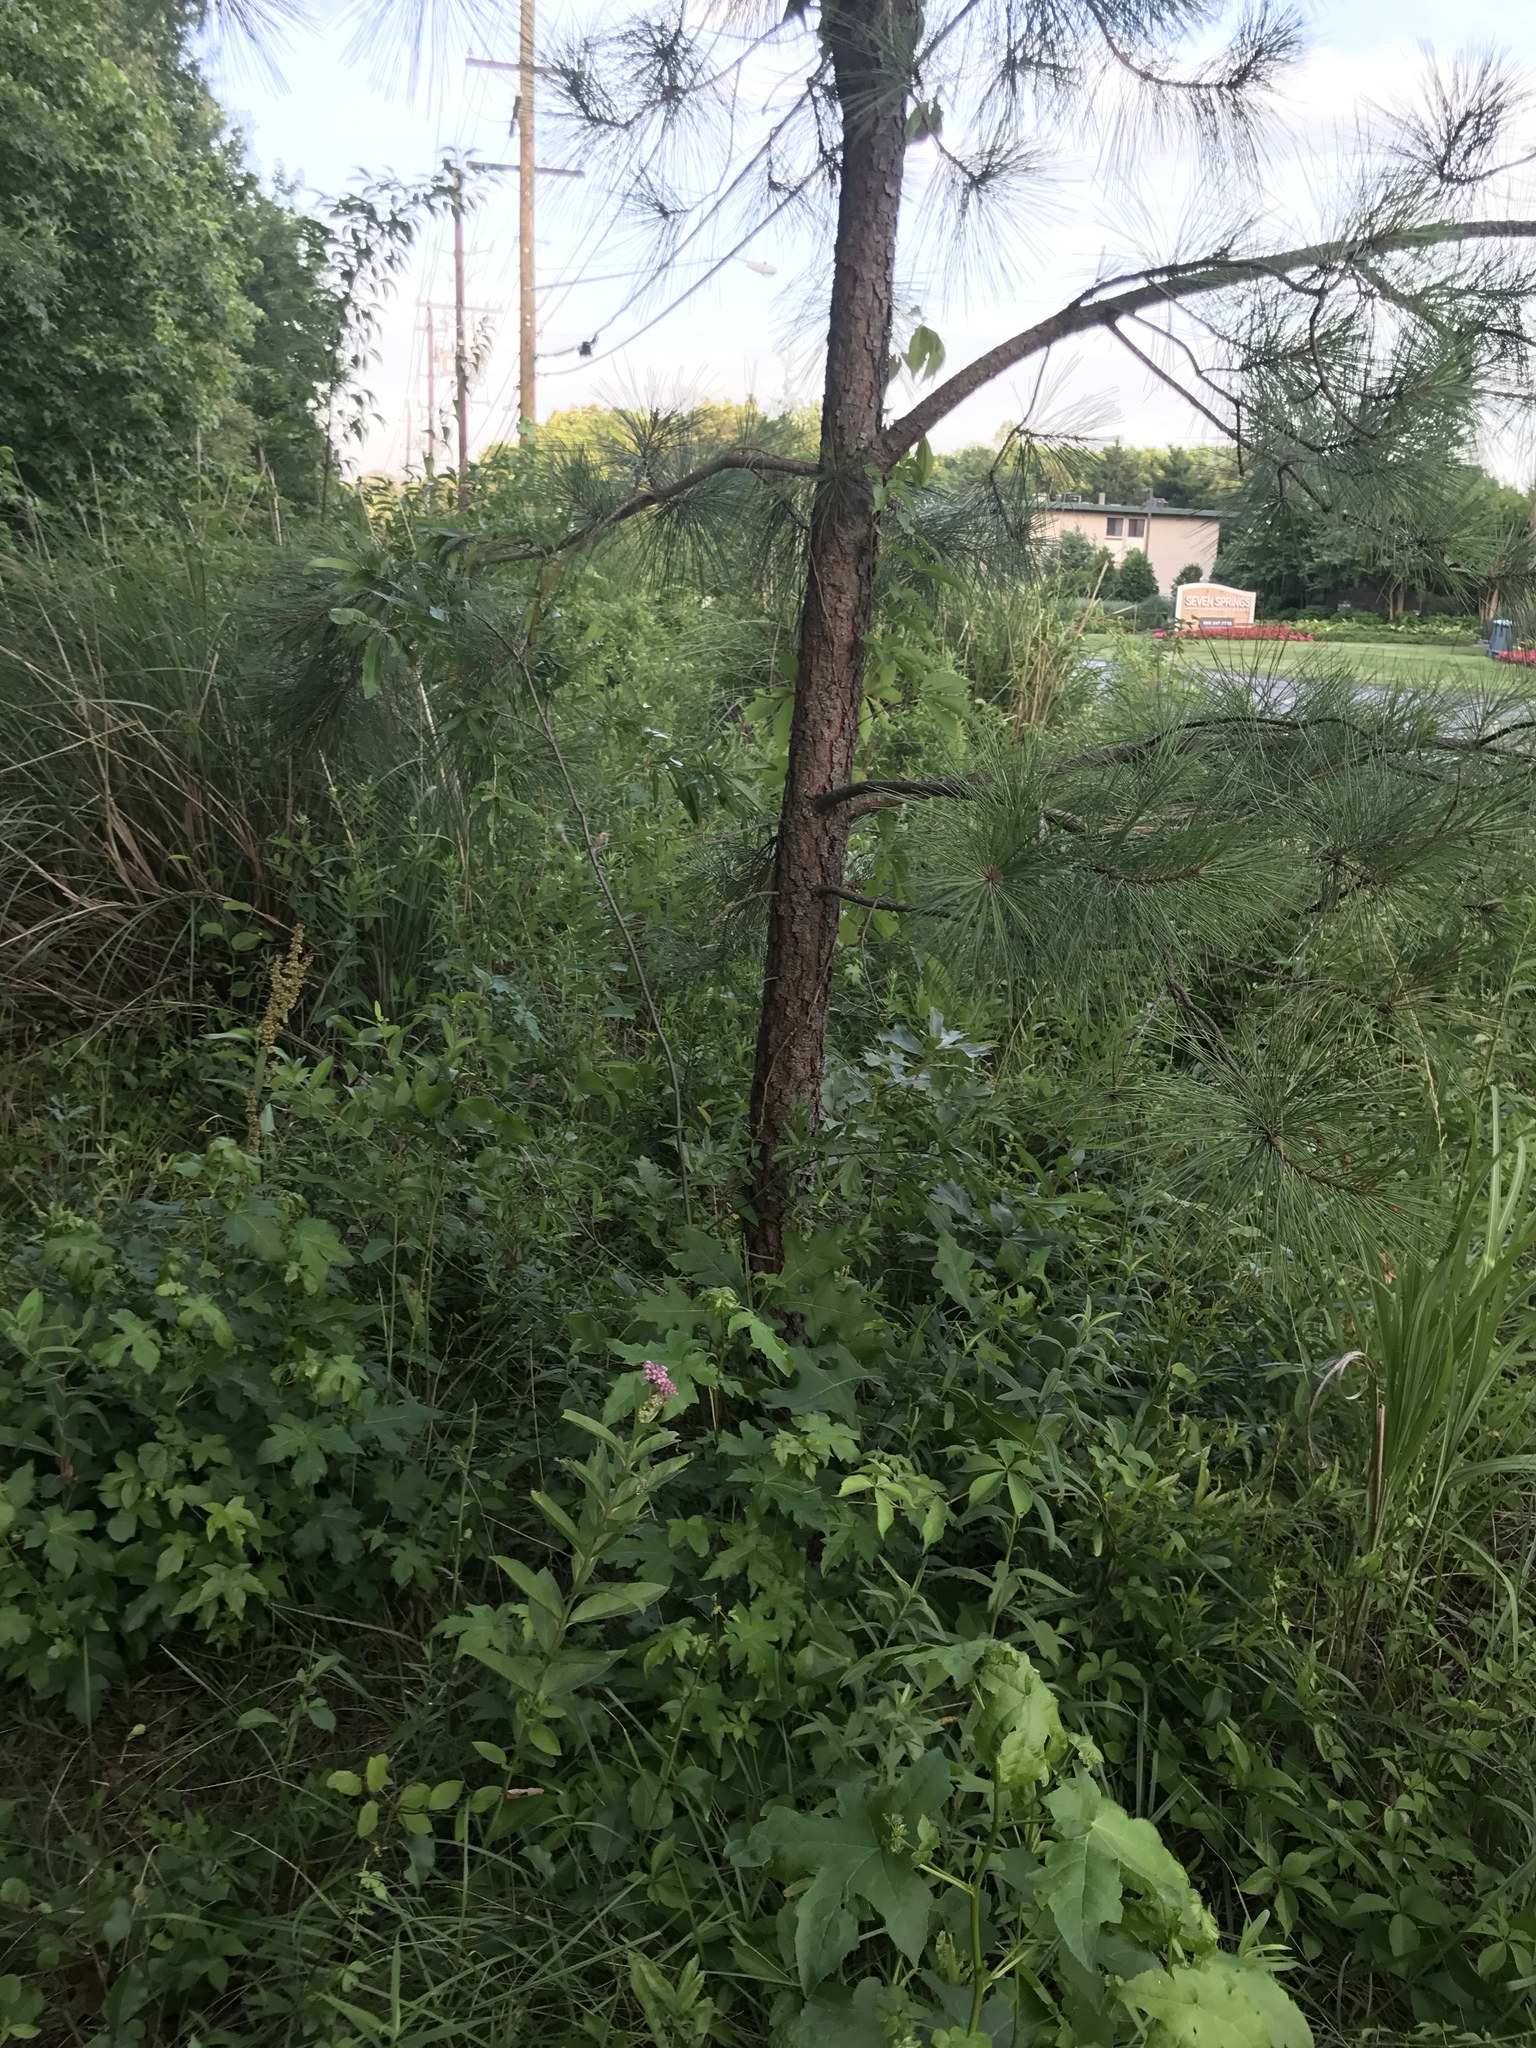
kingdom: Plantae
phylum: Tracheophyta
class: Magnoliopsida
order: Gentianales
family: Apocynaceae
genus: Asclepias
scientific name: Asclepias incarnata
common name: Swamp milkweed
